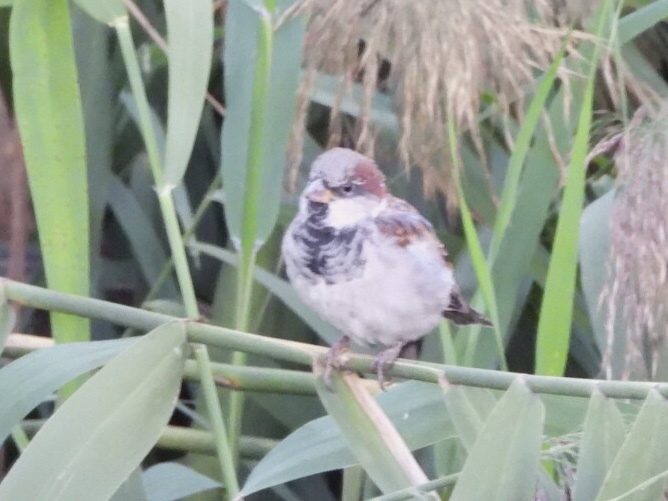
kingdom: Animalia
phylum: Chordata
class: Aves
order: Passeriformes
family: Passeridae
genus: Passer
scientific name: Passer domesticus
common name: House sparrow
